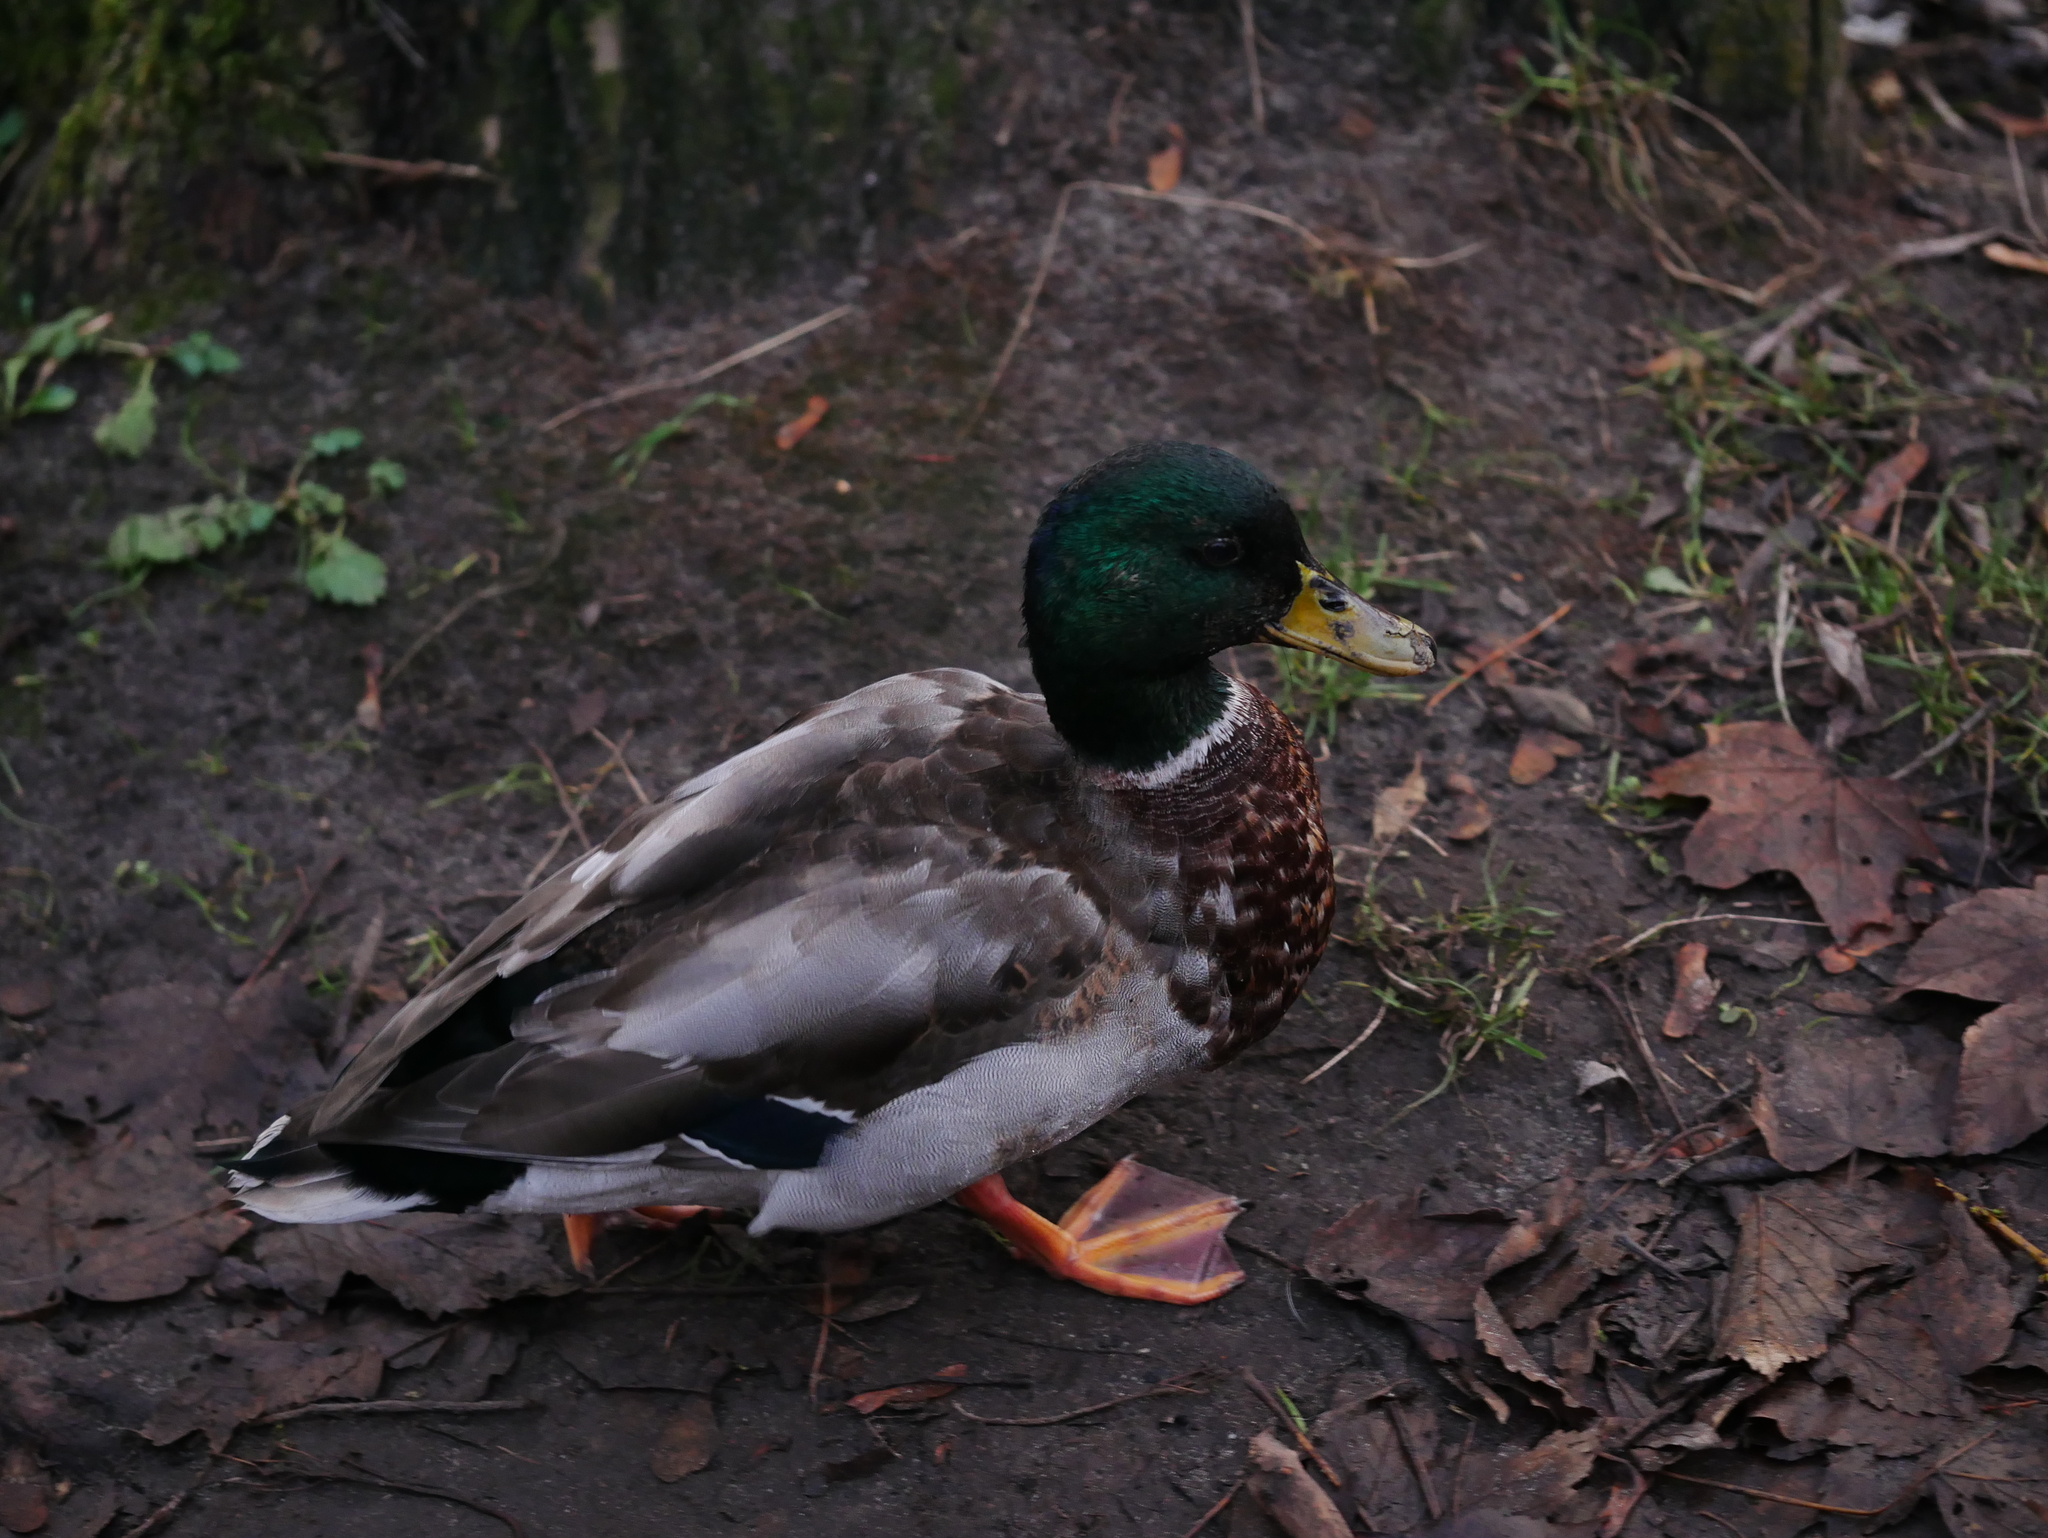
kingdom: Animalia
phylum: Chordata
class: Aves
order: Anseriformes
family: Anatidae
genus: Anas
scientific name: Anas platyrhynchos
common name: Mallard
